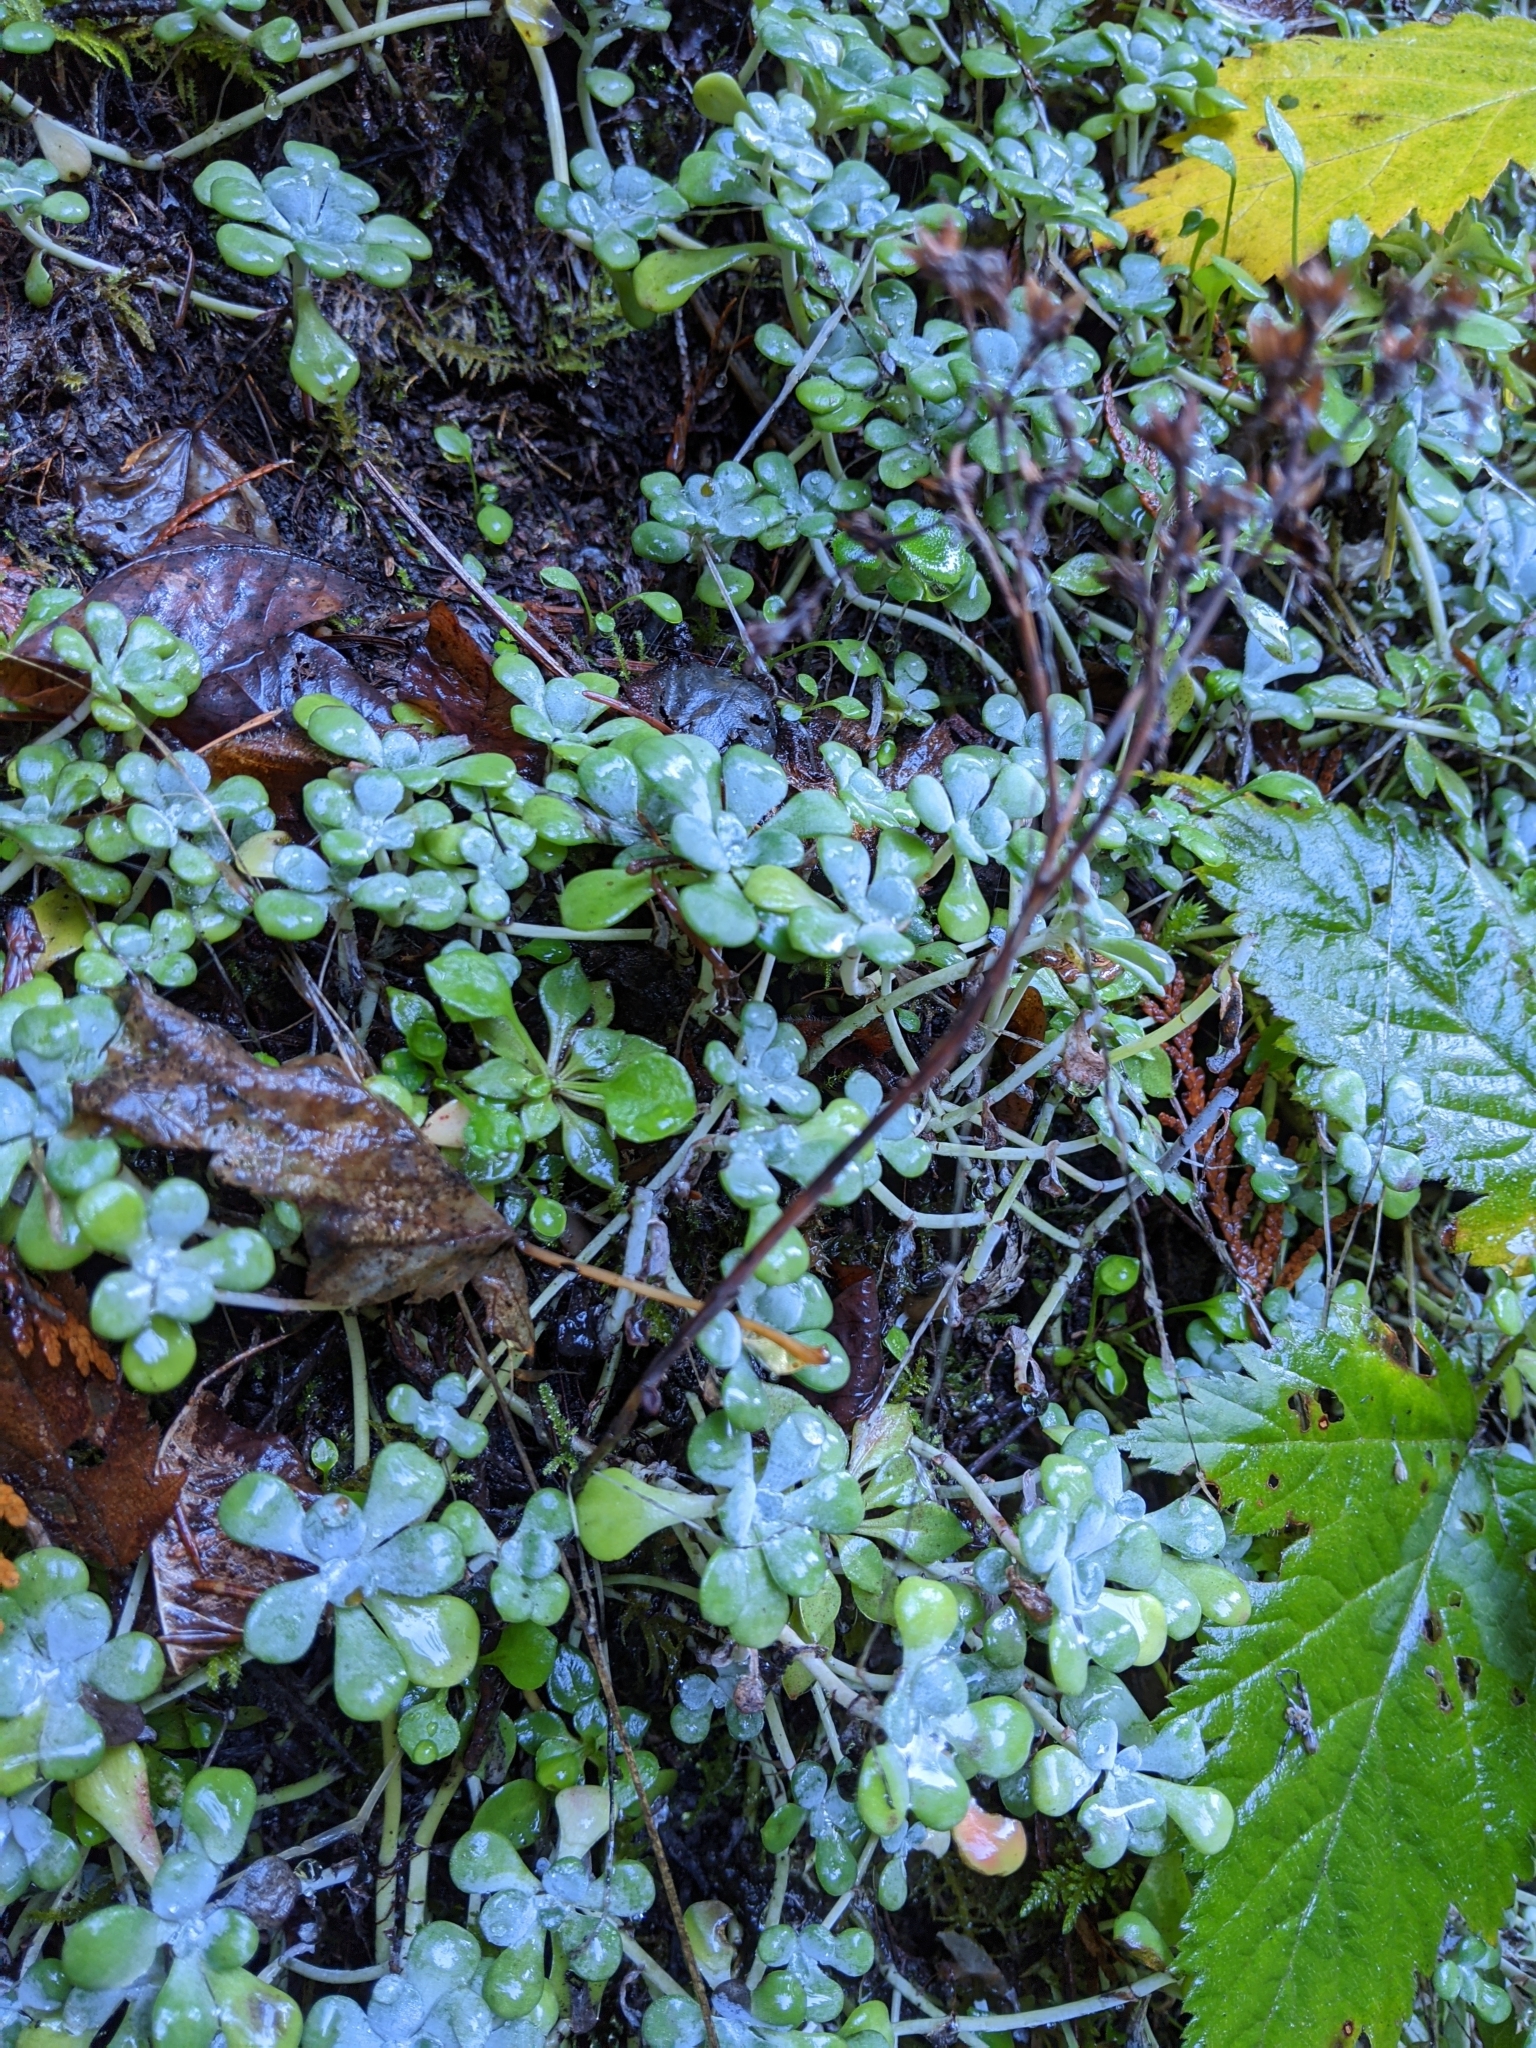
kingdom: Plantae
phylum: Tracheophyta
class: Magnoliopsida
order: Saxifragales
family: Crassulaceae
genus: Sedum
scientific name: Sedum spathulifolium
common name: Colorado stonecrop
